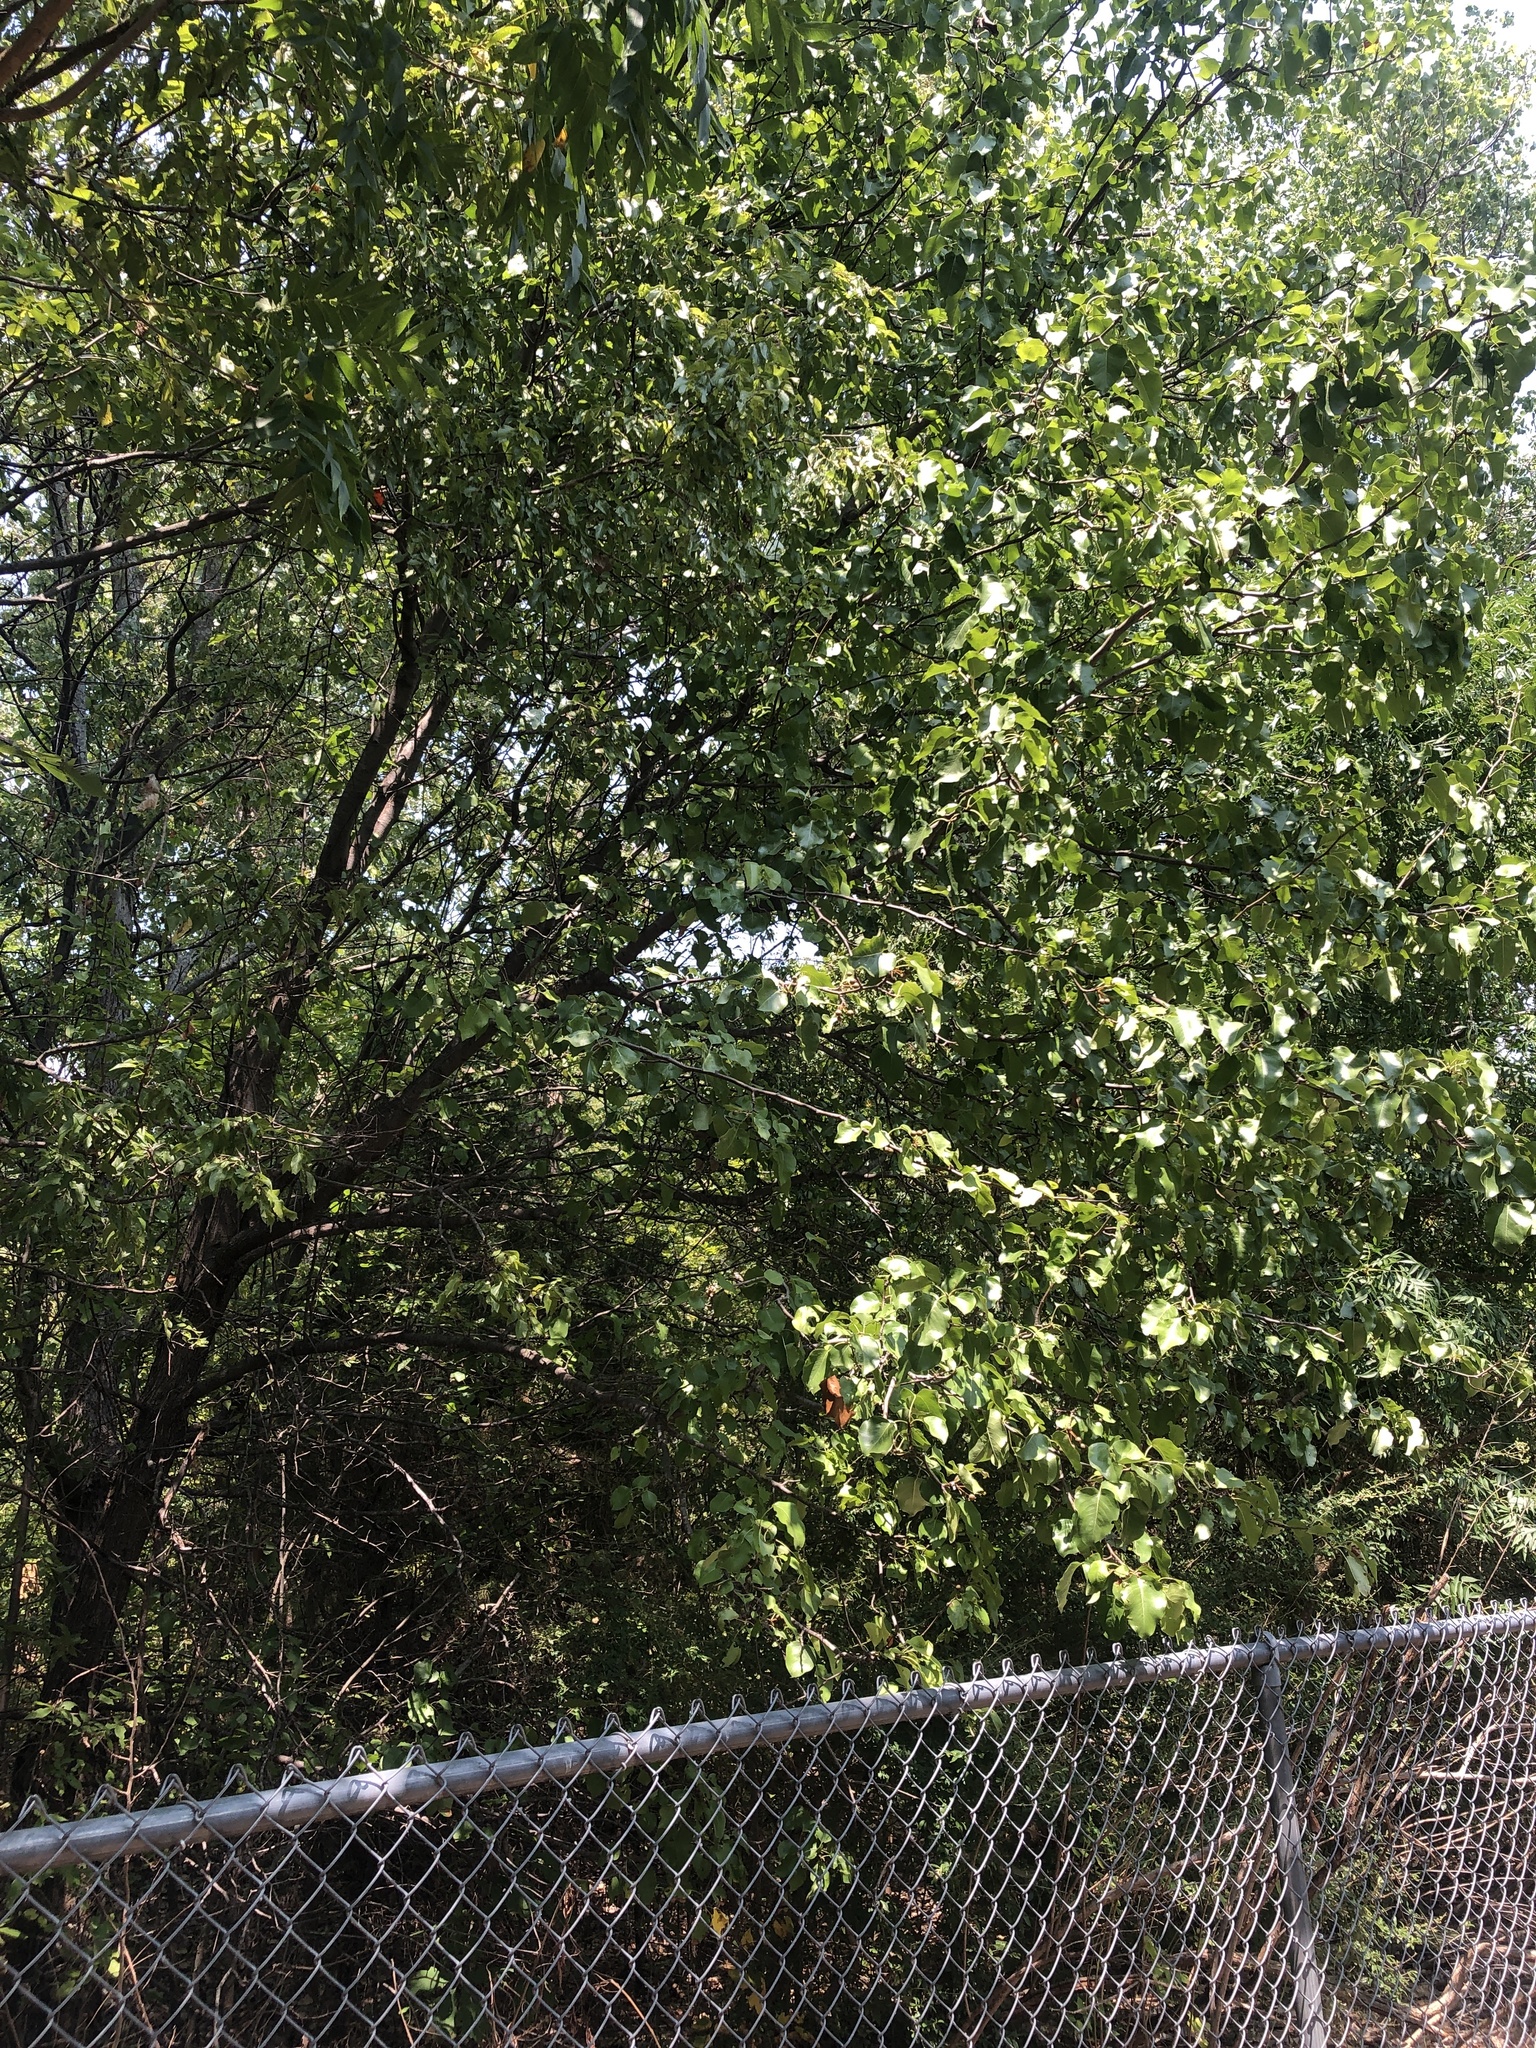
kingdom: Plantae
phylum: Tracheophyta
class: Magnoliopsida
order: Rosales
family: Rosaceae
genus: Pyrus
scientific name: Pyrus calleryana
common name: Callery pear
